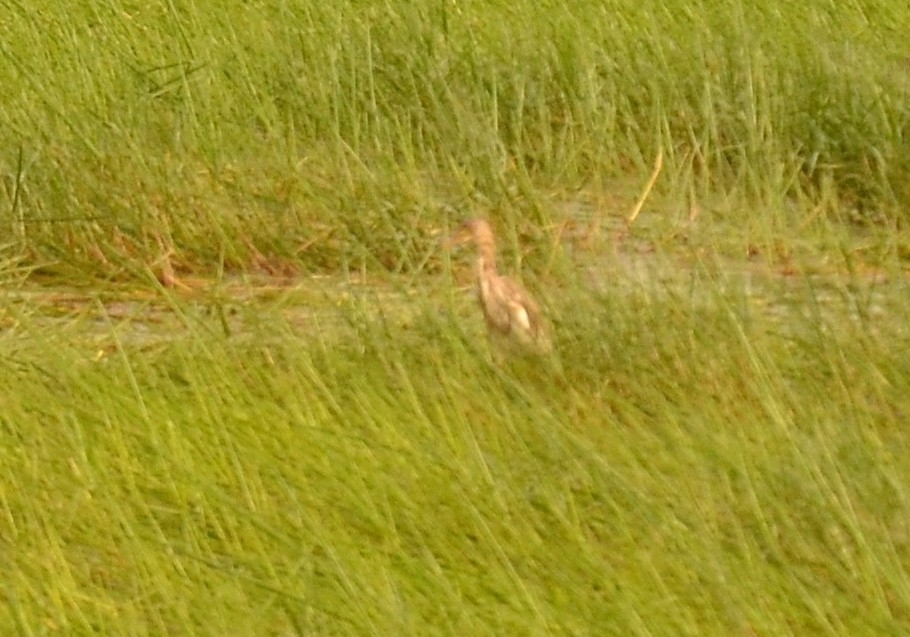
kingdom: Animalia
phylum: Chordata
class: Aves
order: Pelecaniformes
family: Ardeidae
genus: Ardeola
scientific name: Ardeola grayii
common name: Indian pond heron
